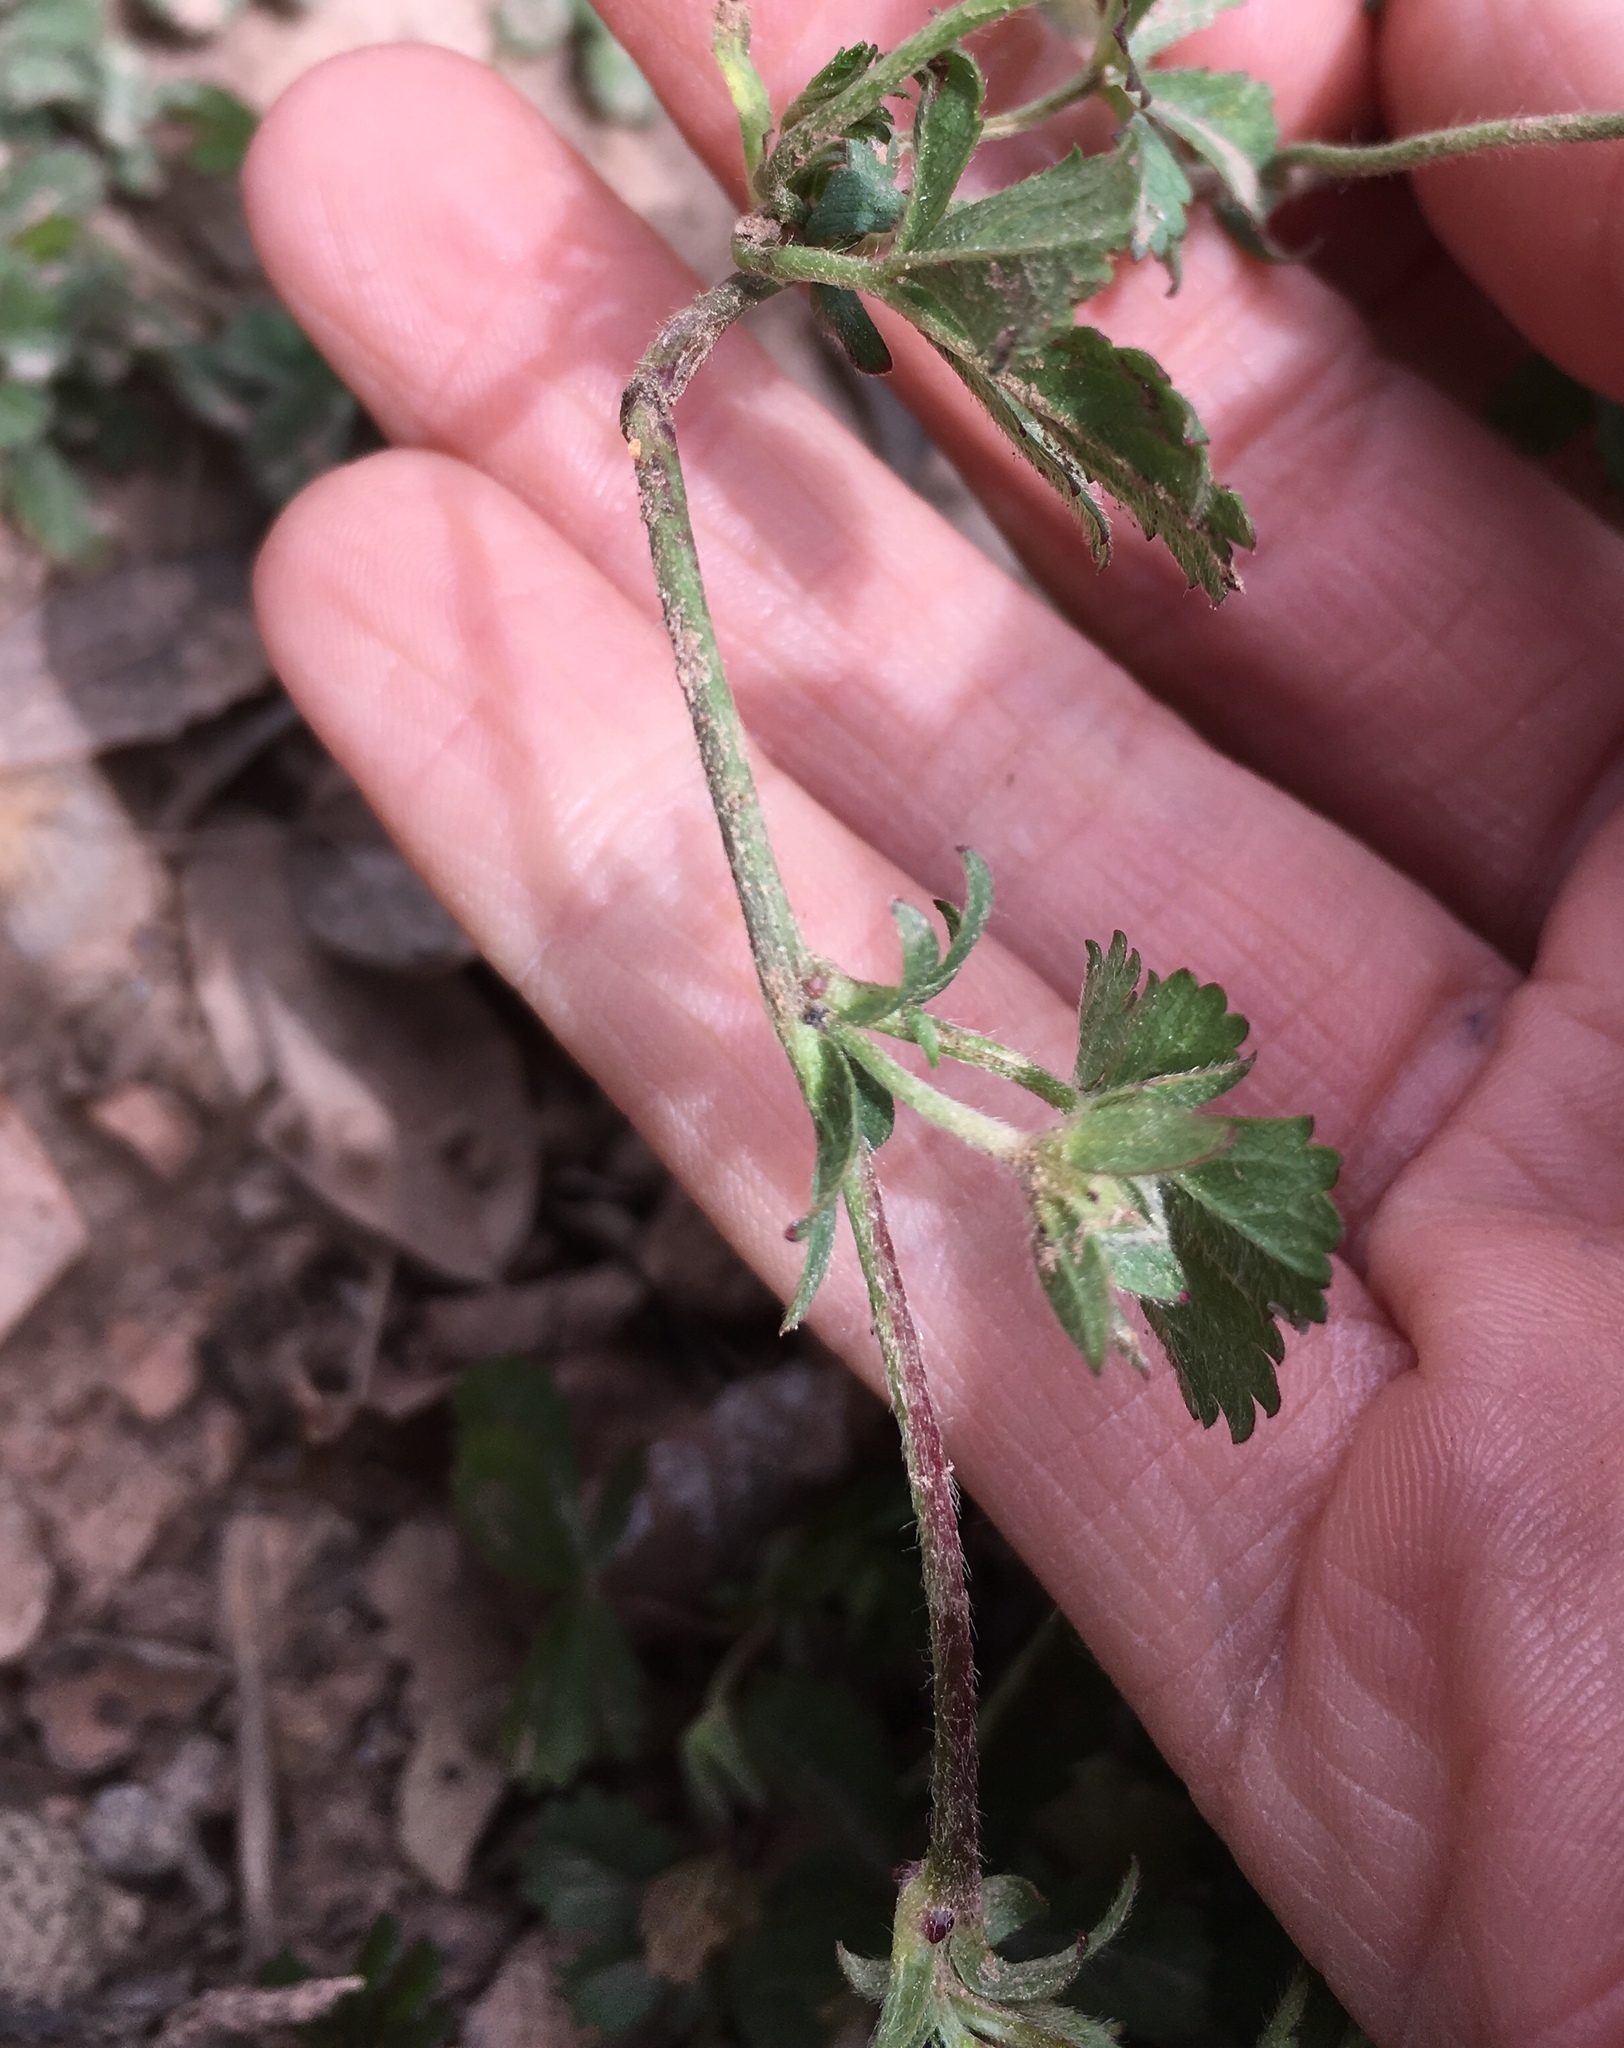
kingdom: Plantae
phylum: Tracheophyta
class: Magnoliopsida
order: Rosales
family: Rosaceae
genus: Potentilla
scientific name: Potentilla verna
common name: Spring cinquefoil
